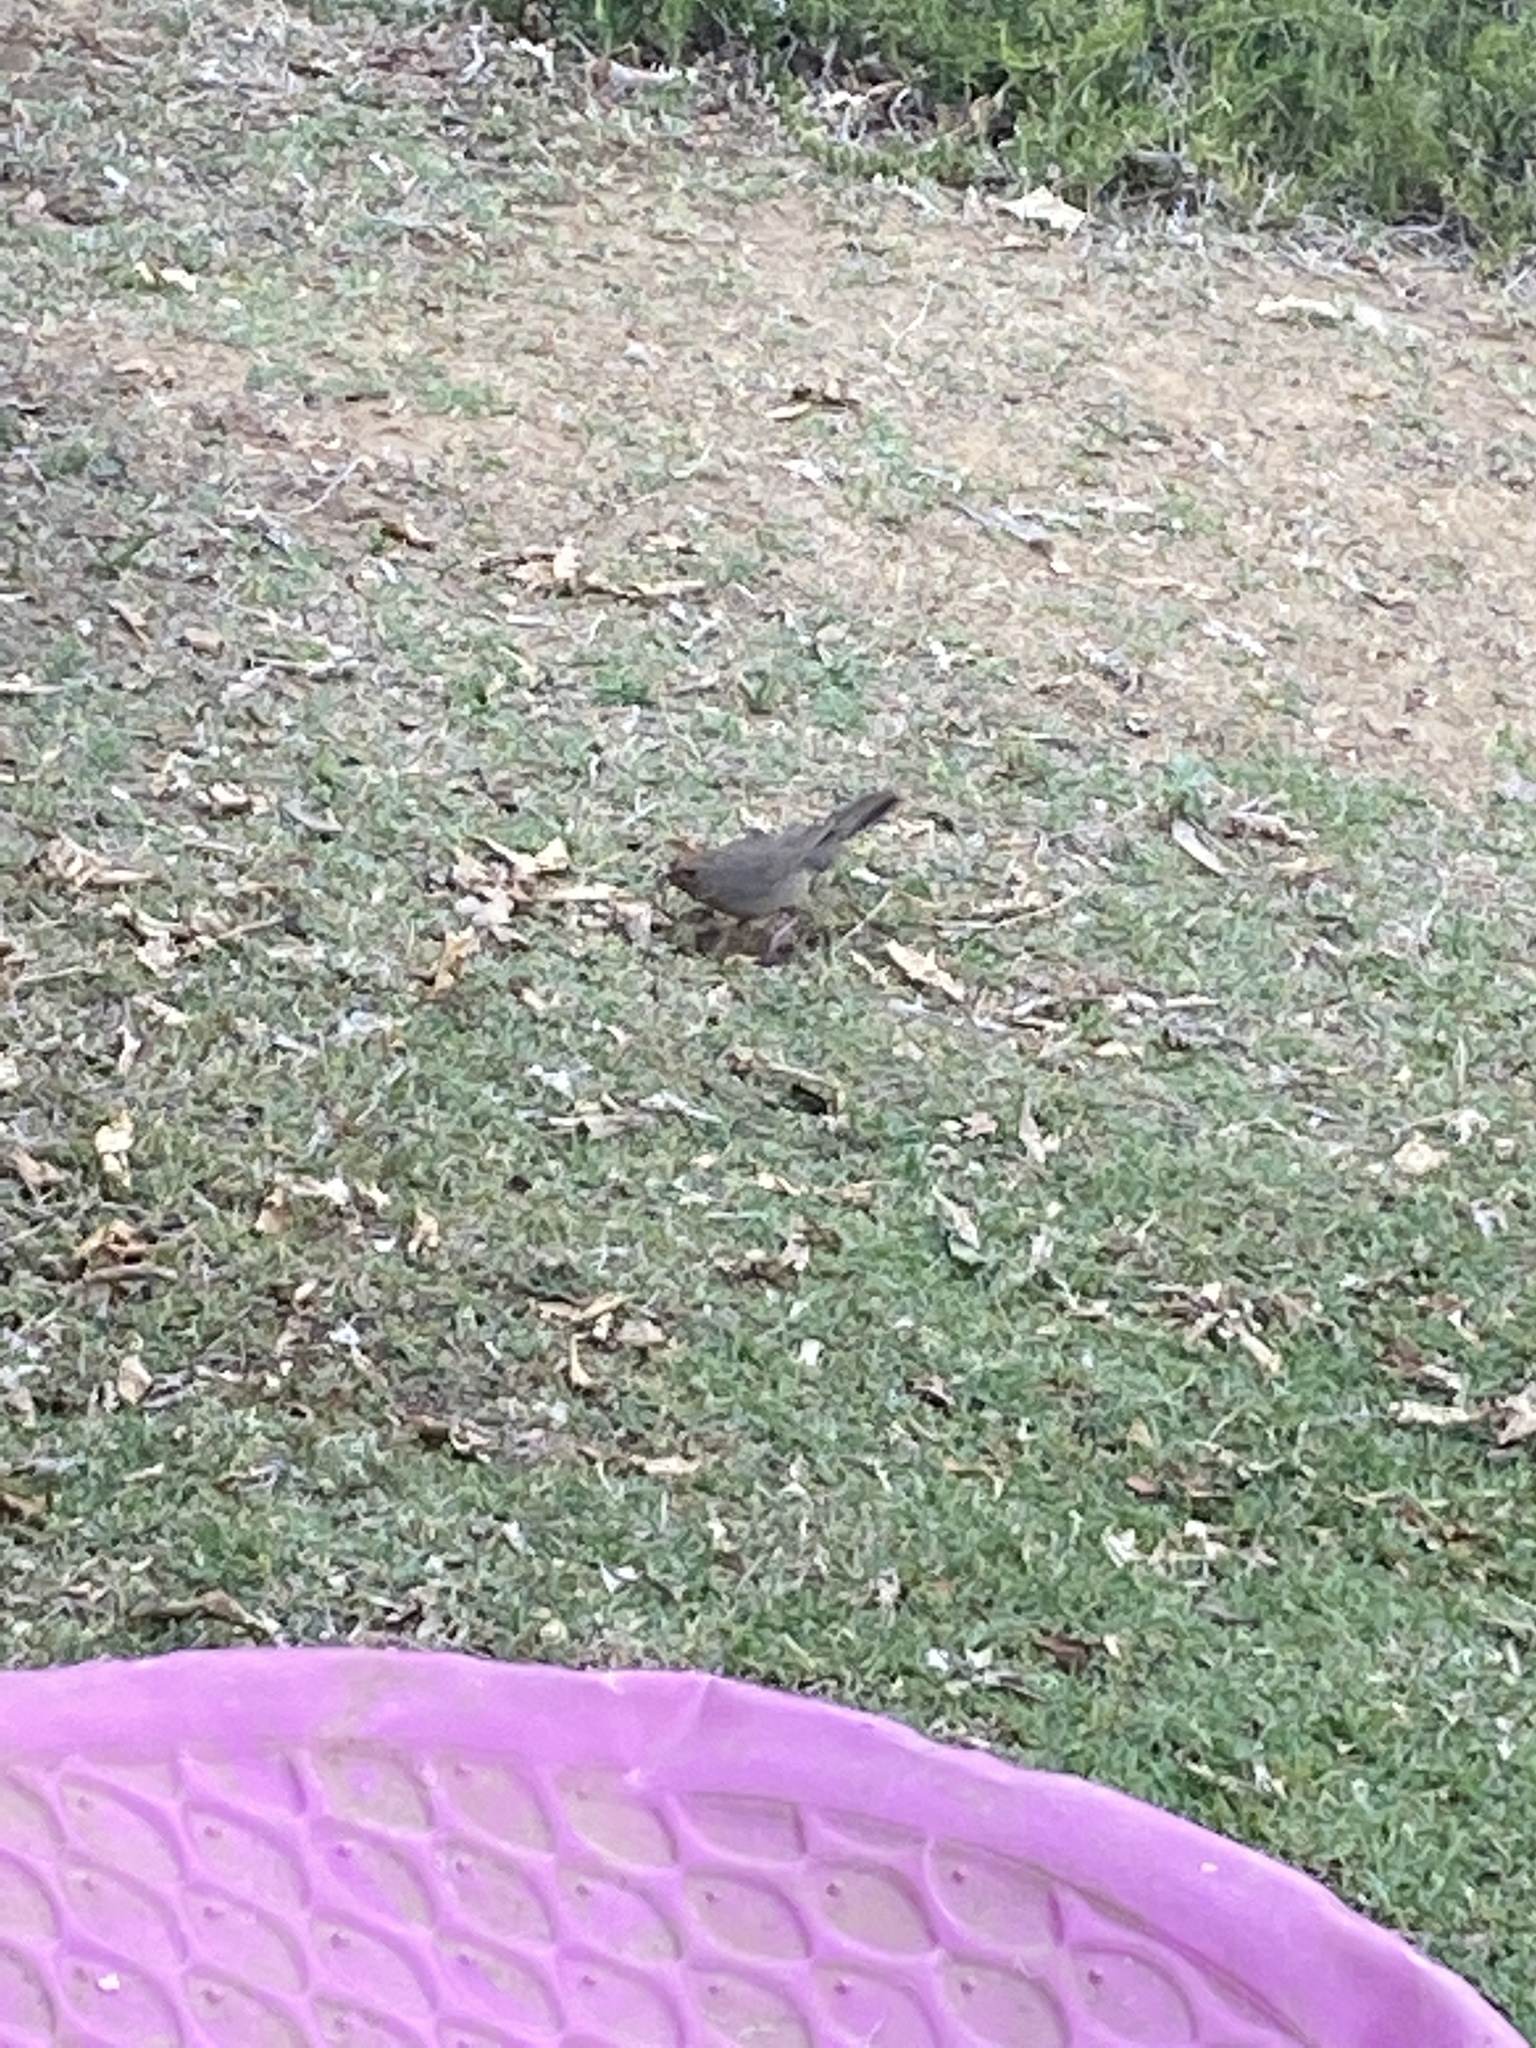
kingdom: Animalia
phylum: Chordata
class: Aves
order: Passeriformes
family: Passerellidae
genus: Melozone
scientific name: Melozone crissalis
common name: California towhee
